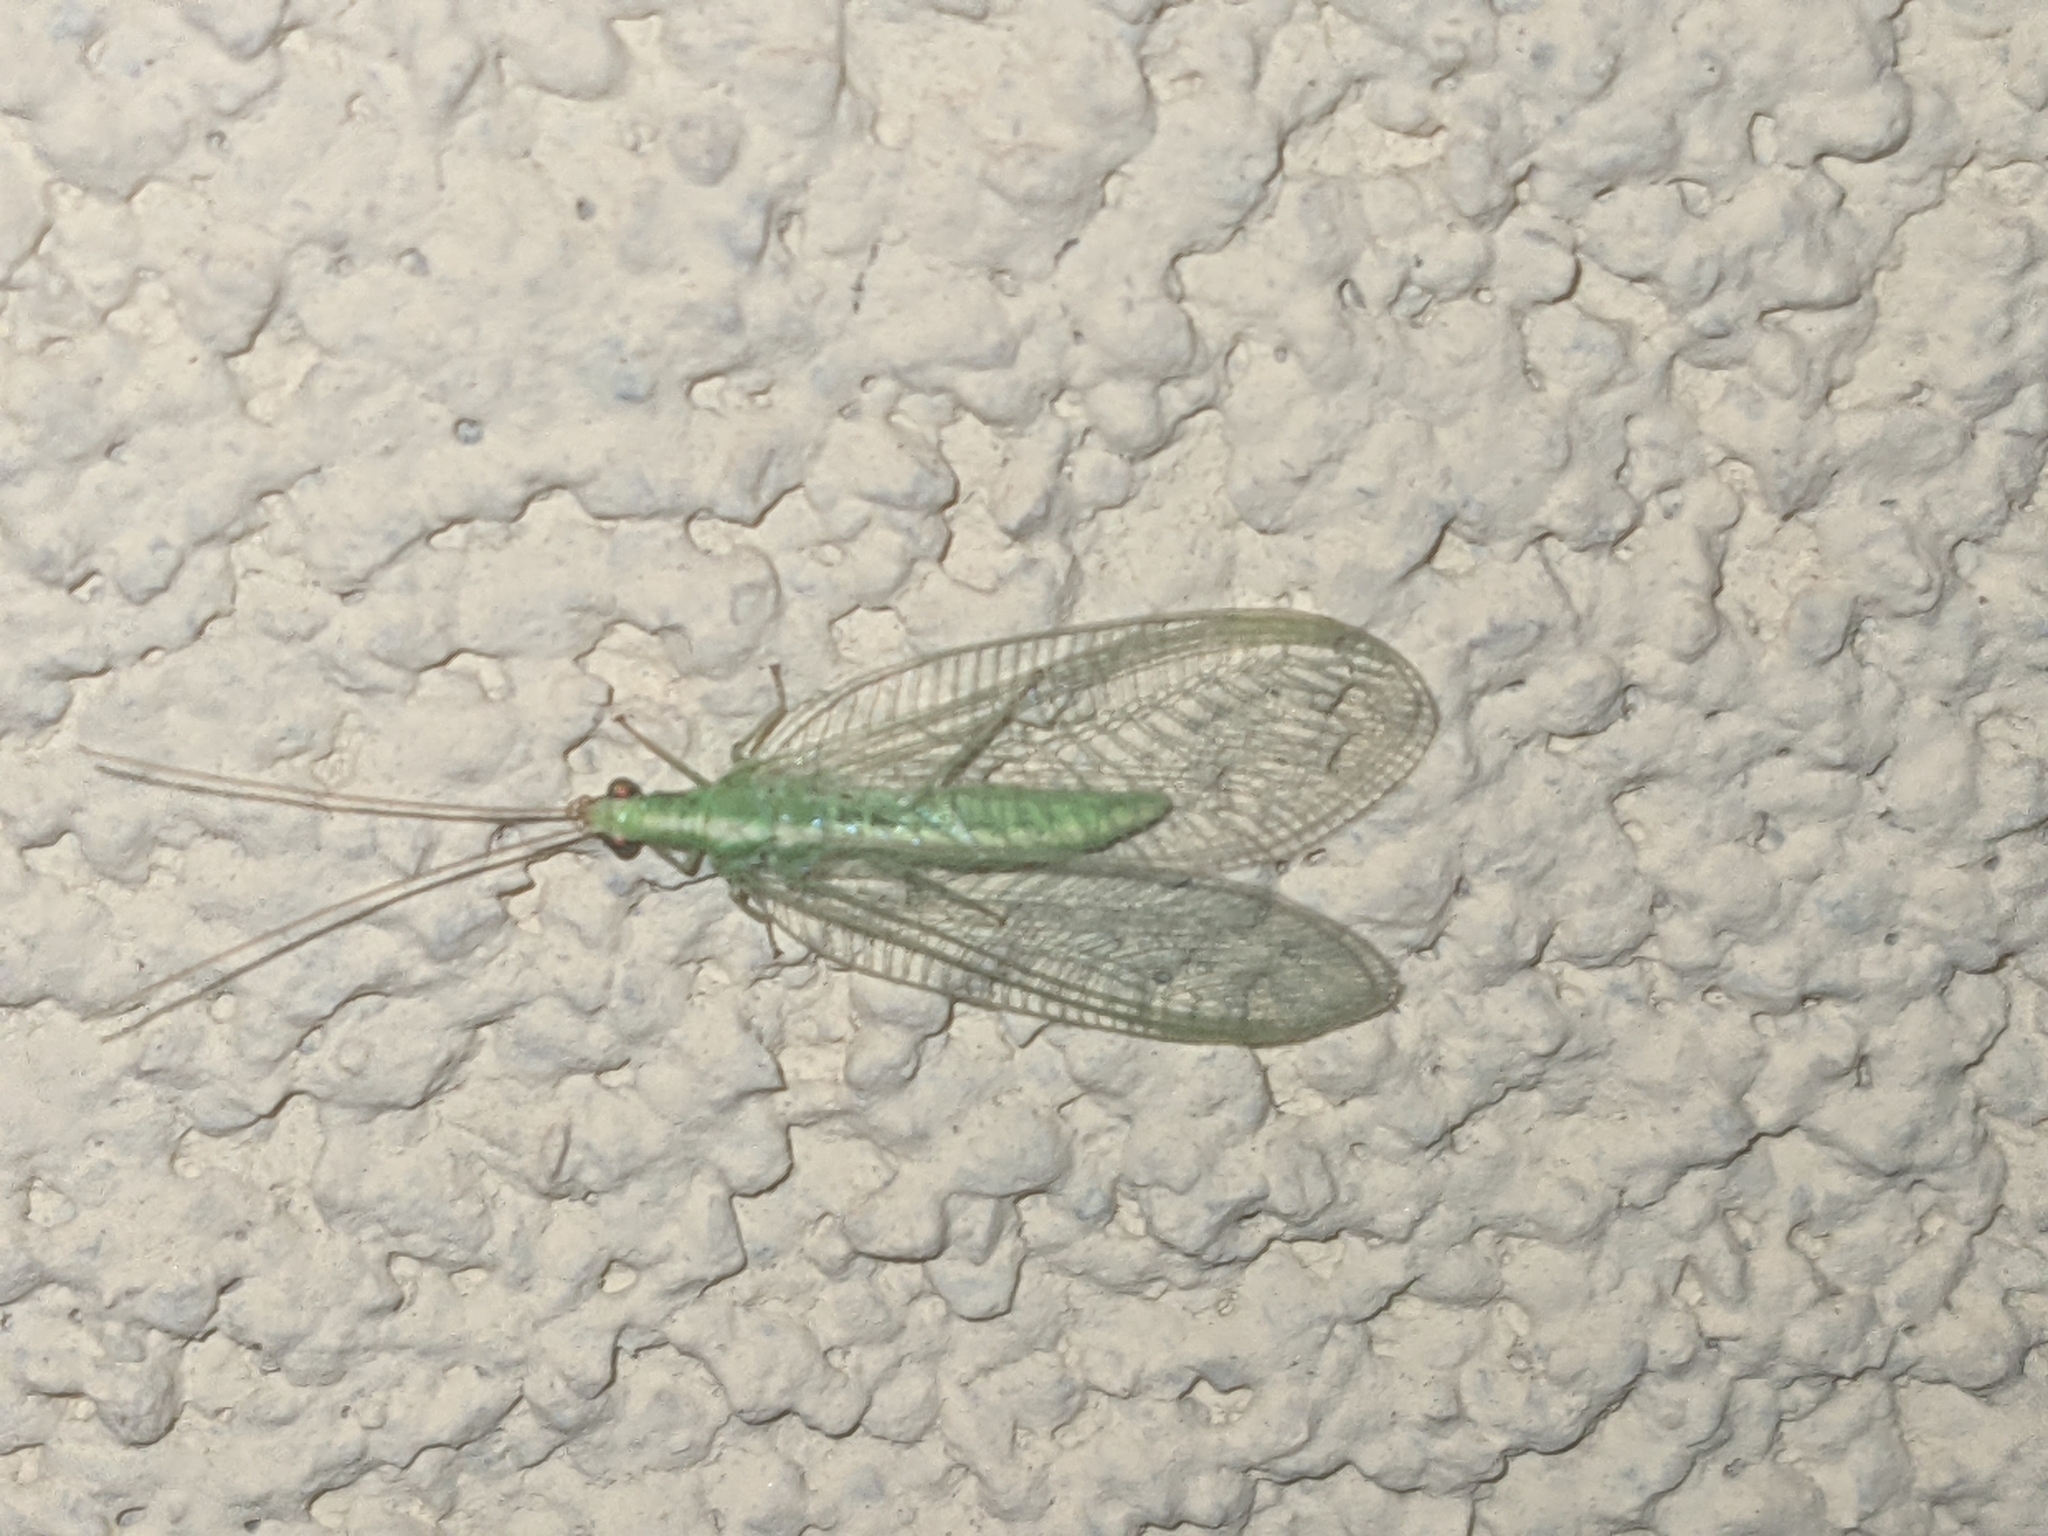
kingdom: Animalia
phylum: Arthropoda
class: Insecta
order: Neuroptera
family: Chrysopidae
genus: Chrysoperla
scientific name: Chrysoperla
